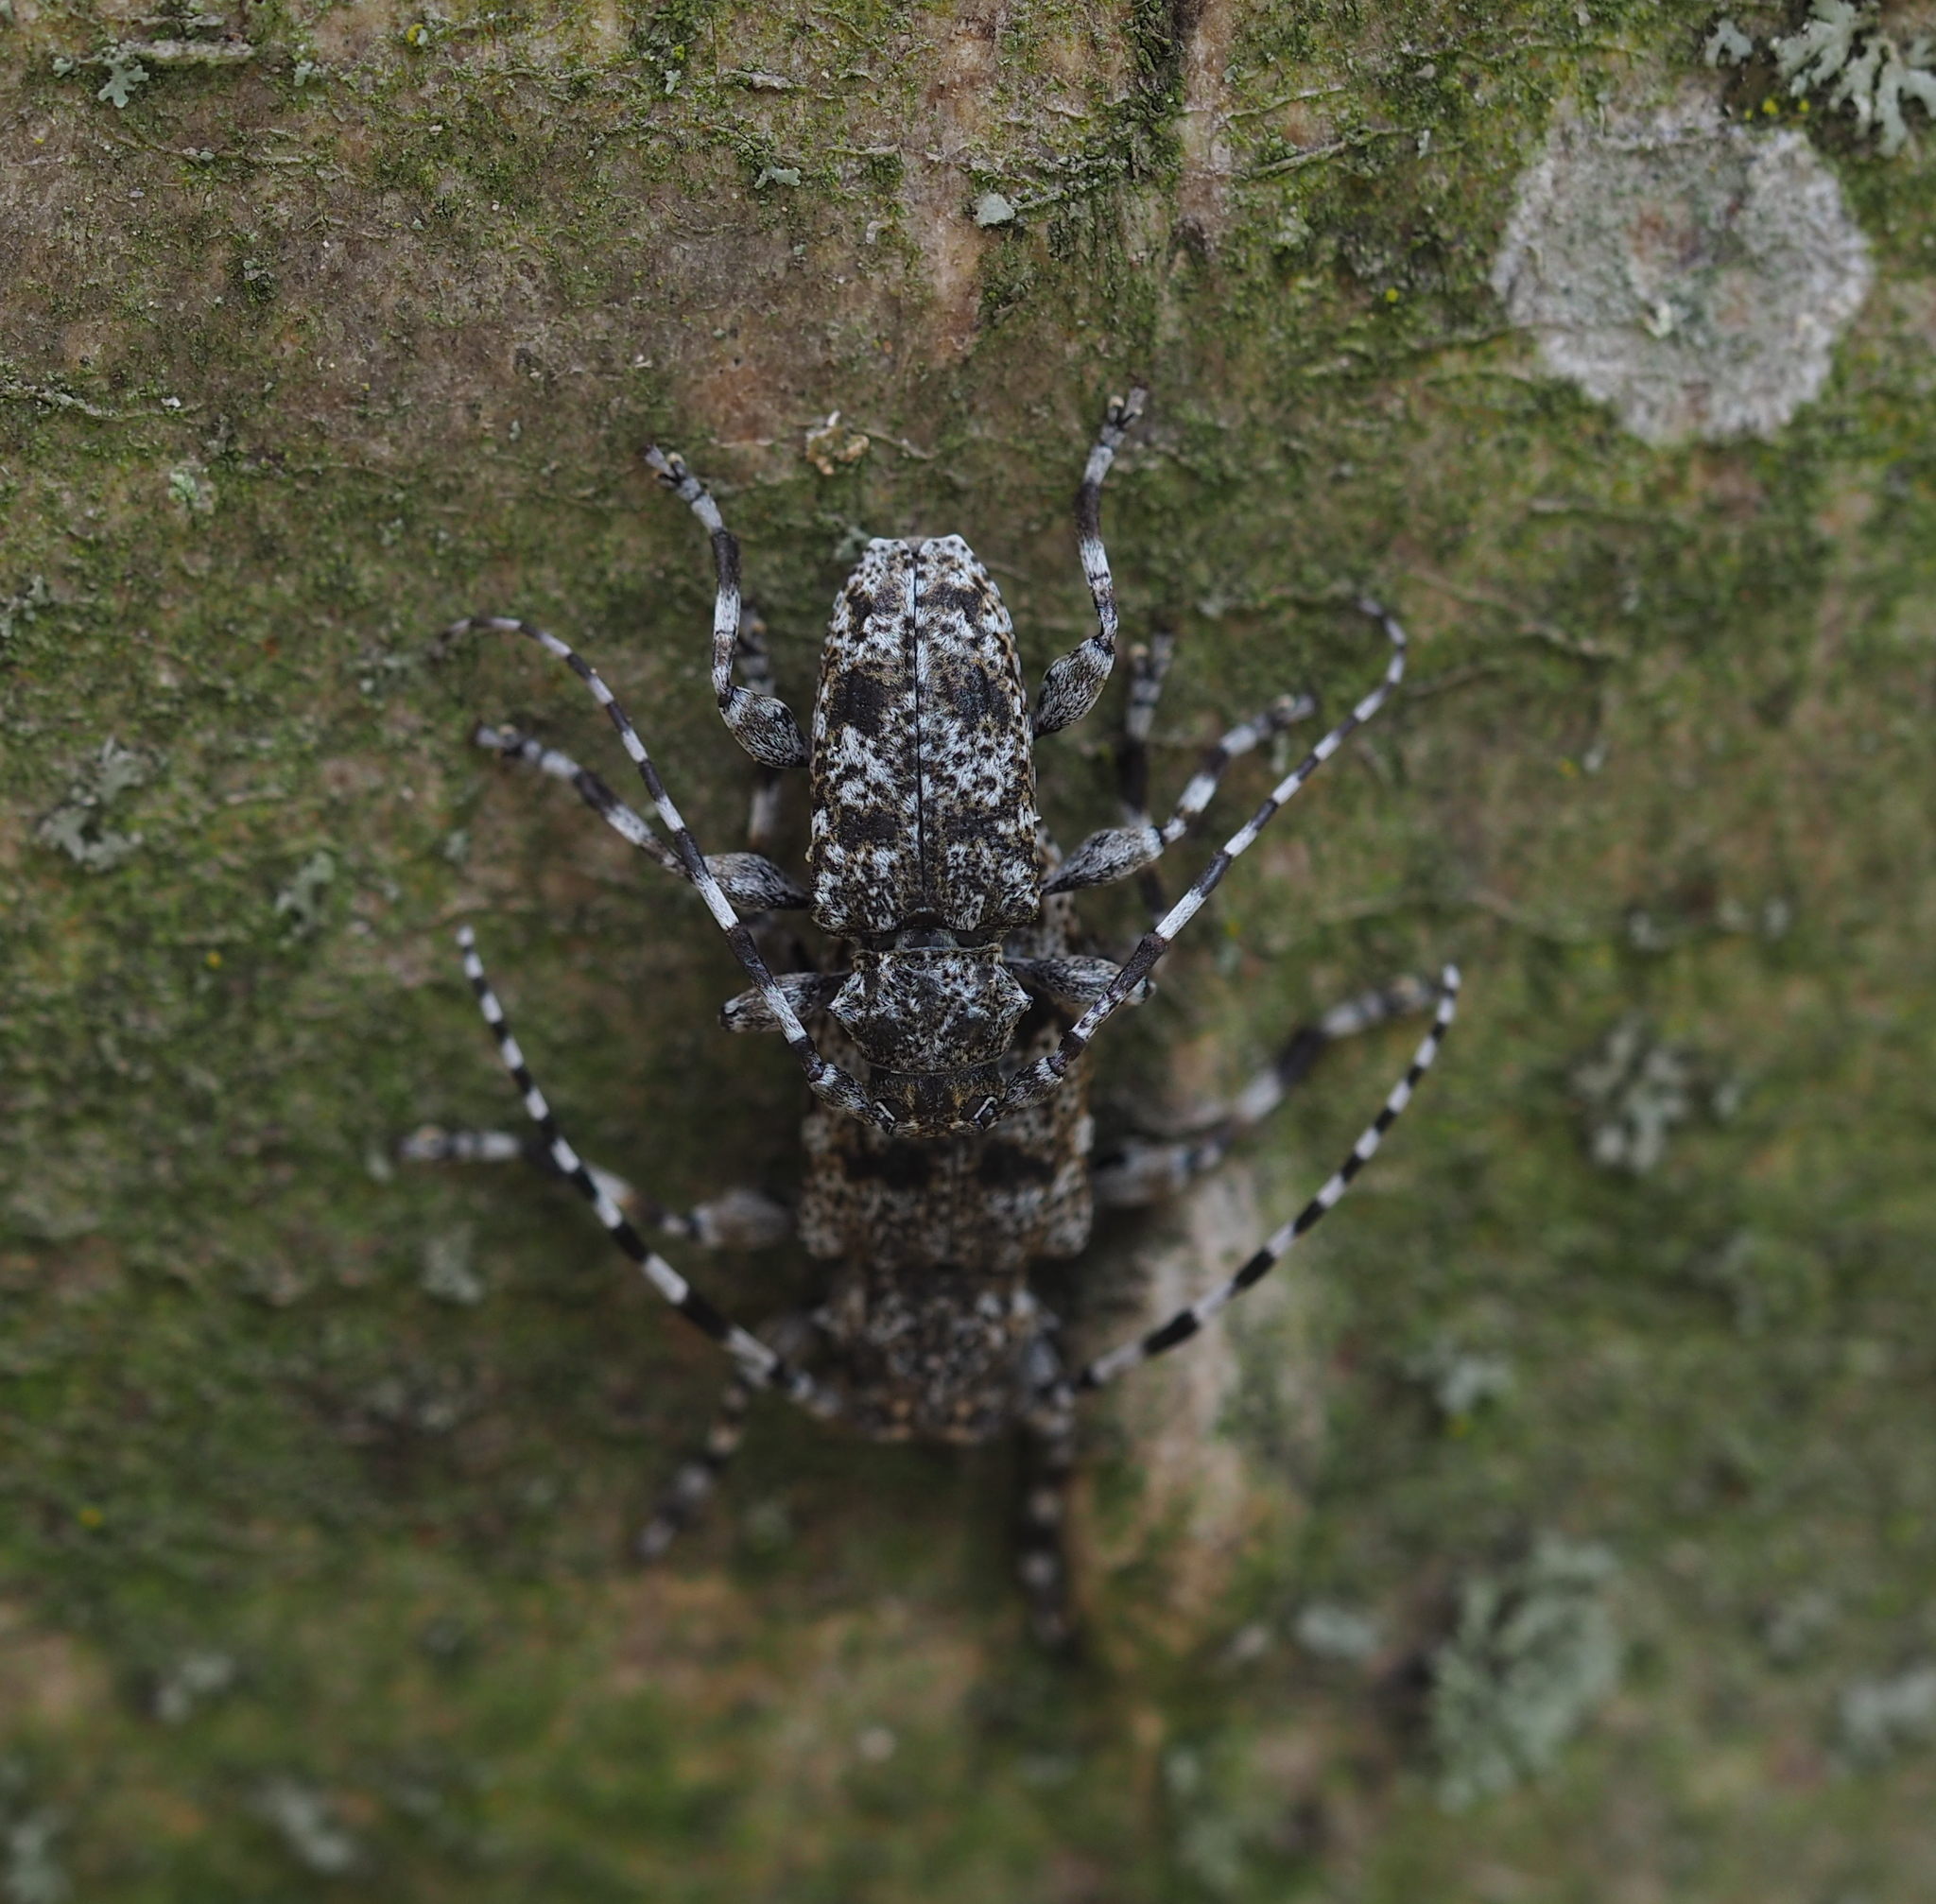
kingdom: Animalia
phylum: Arthropoda
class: Insecta
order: Coleoptera
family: Cerambycidae
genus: Aegomorphus
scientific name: Aegomorphus clavipes
